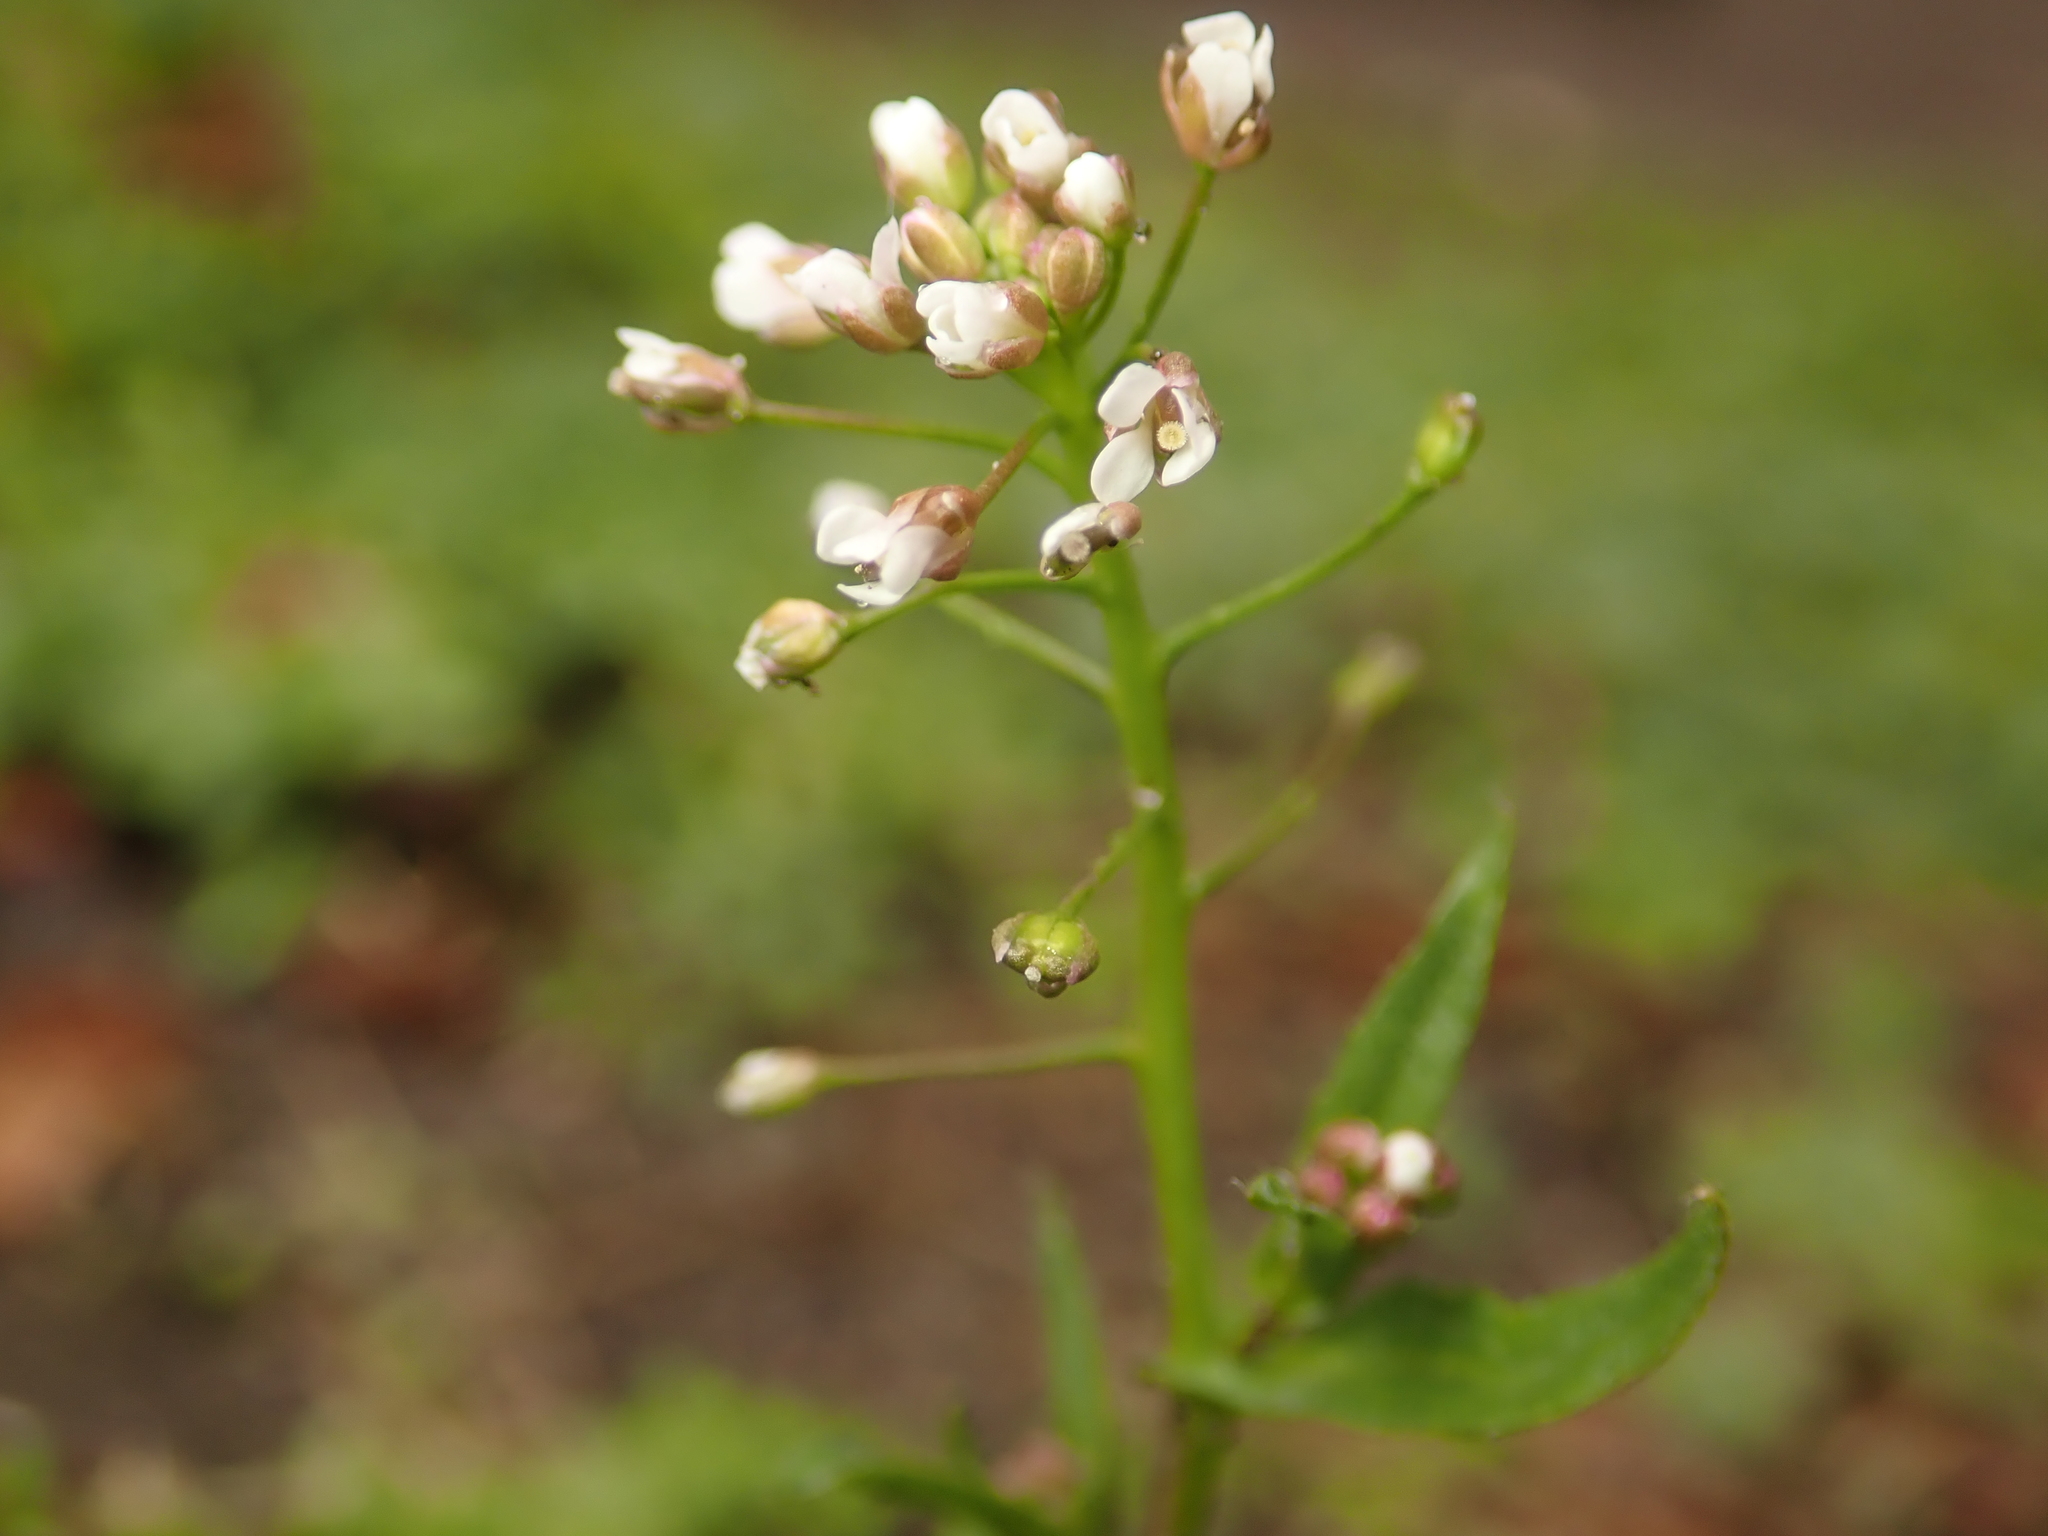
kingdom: Plantae
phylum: Tracheophyta
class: Magnoliopsida
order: Brassicales
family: Brassicaceae
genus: Capsella
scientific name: Capsella bursa-pastoris
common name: Shepherd's purse
